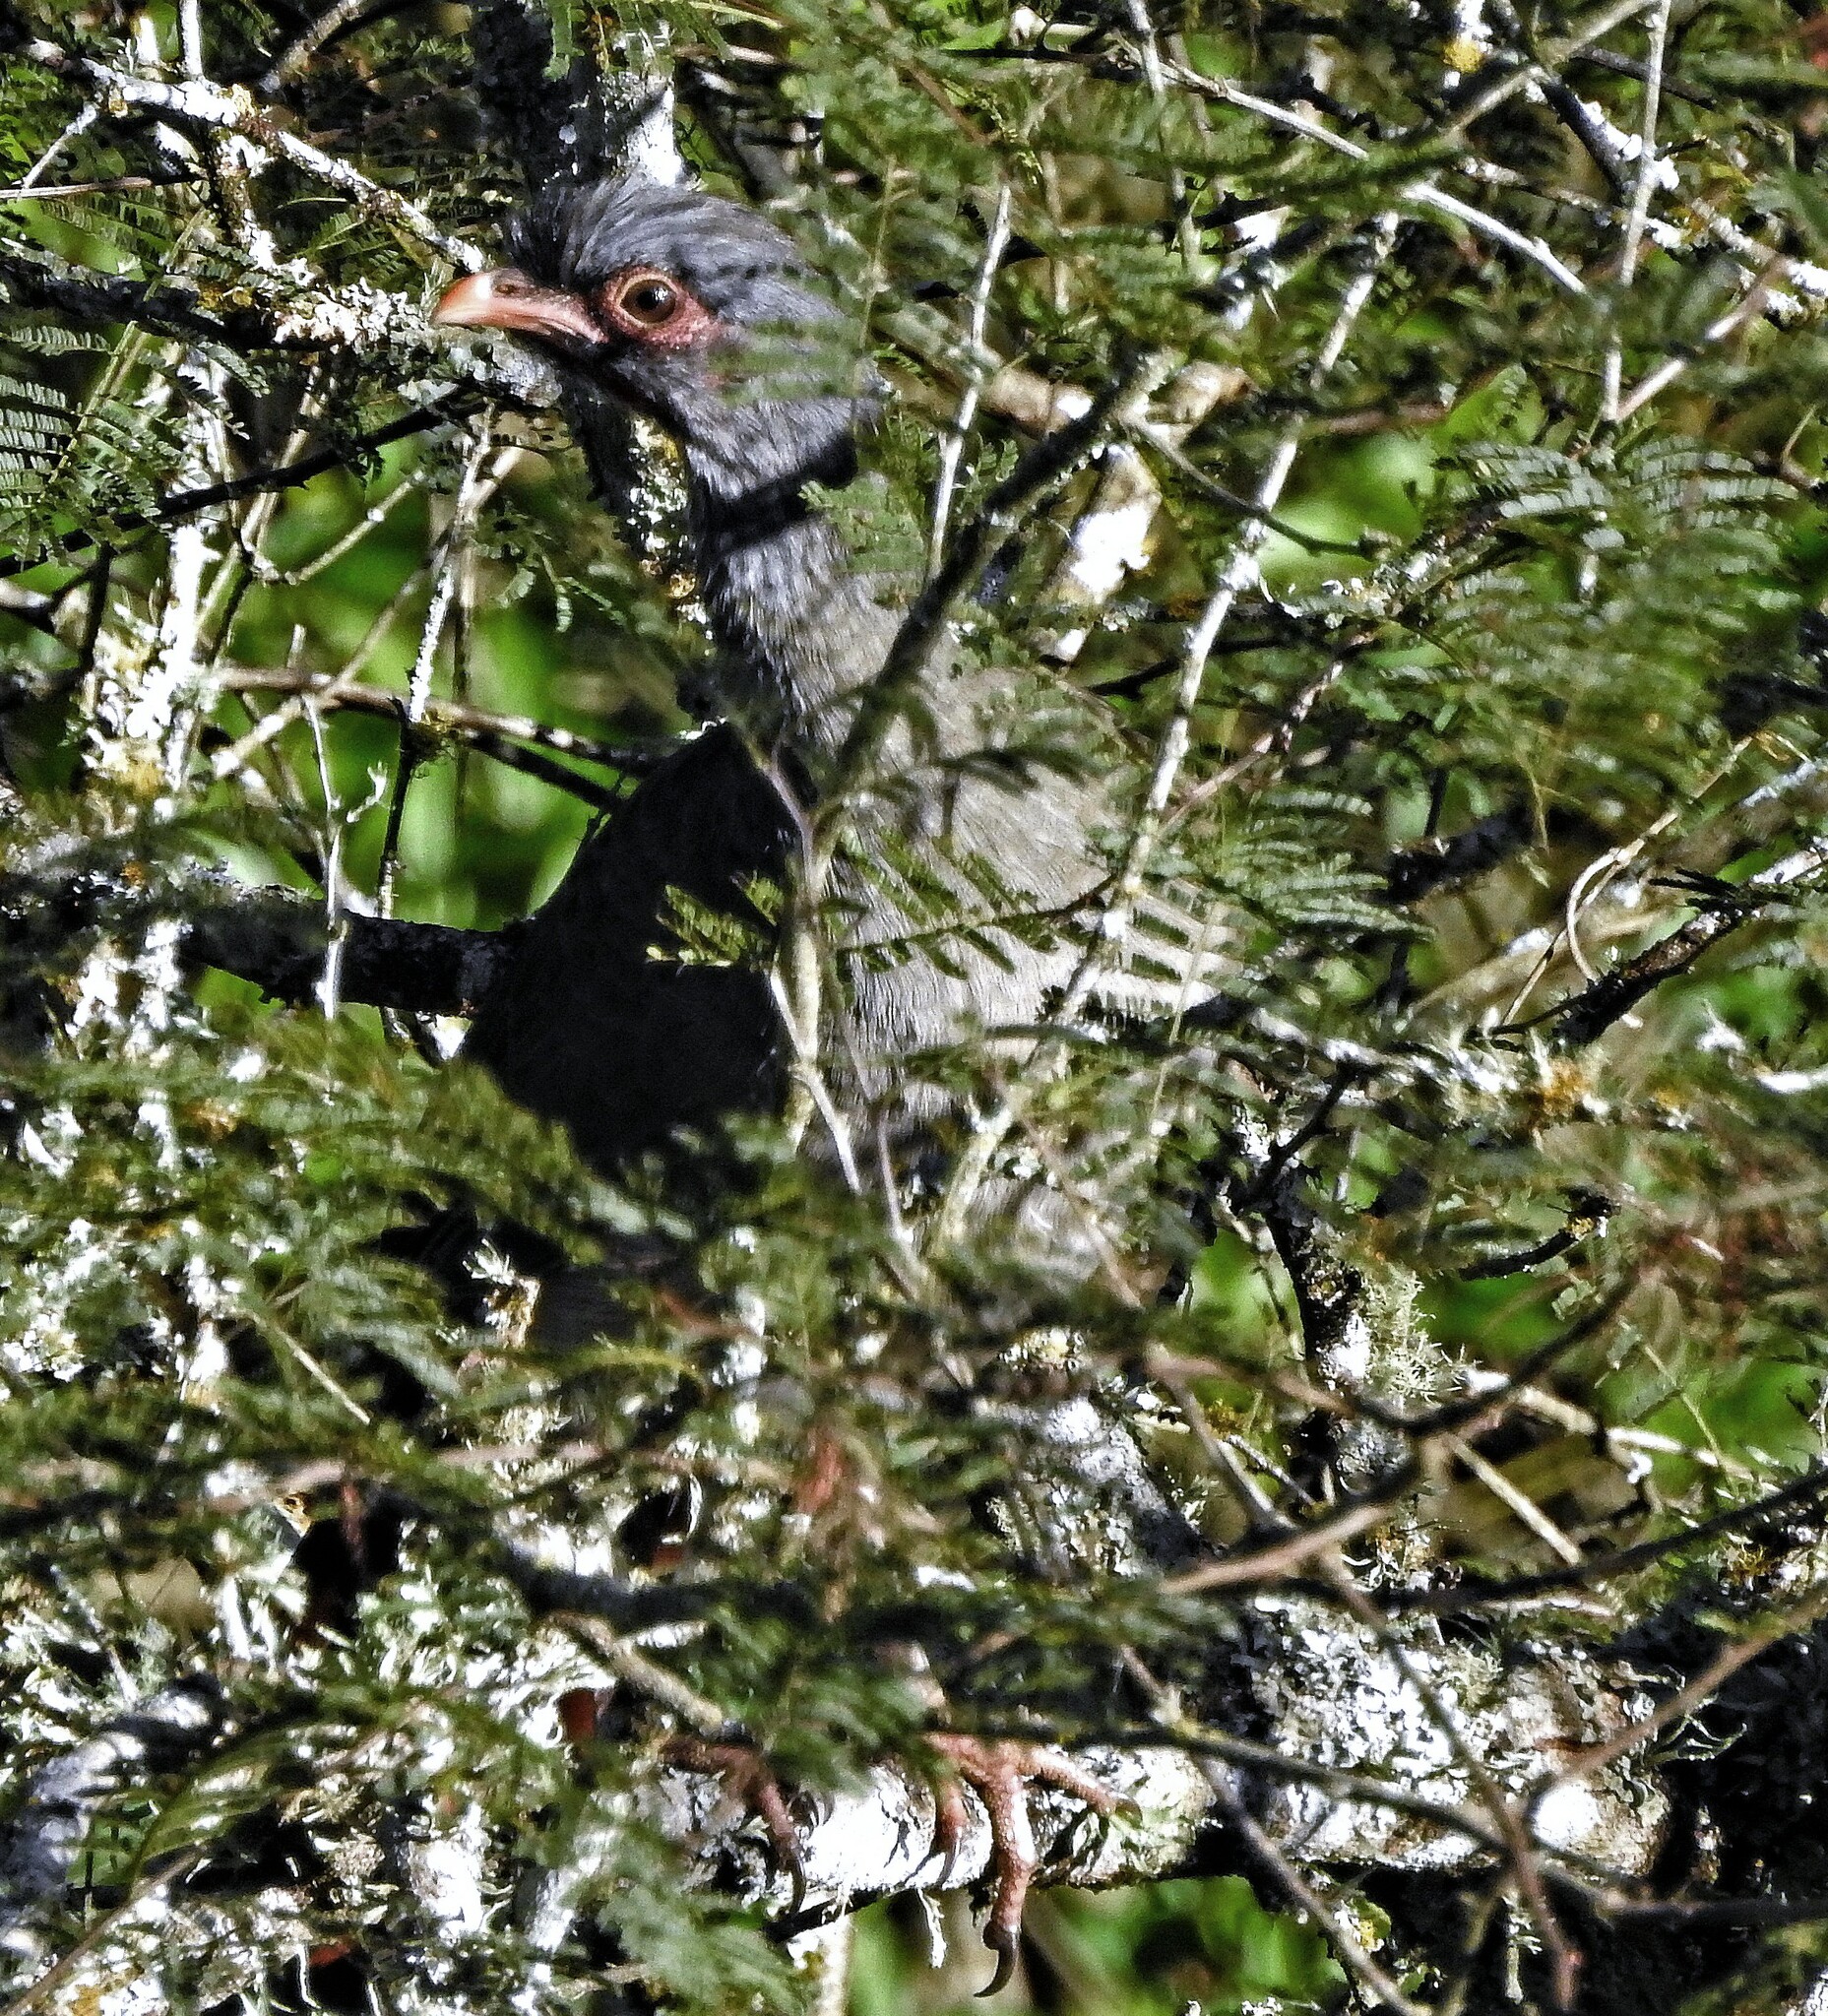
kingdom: Animalia
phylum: Chordata
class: Aves
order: Galliformes
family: Cracidae
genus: Ortalis
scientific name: Ortalis canicollis
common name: Chaco chachalaca
